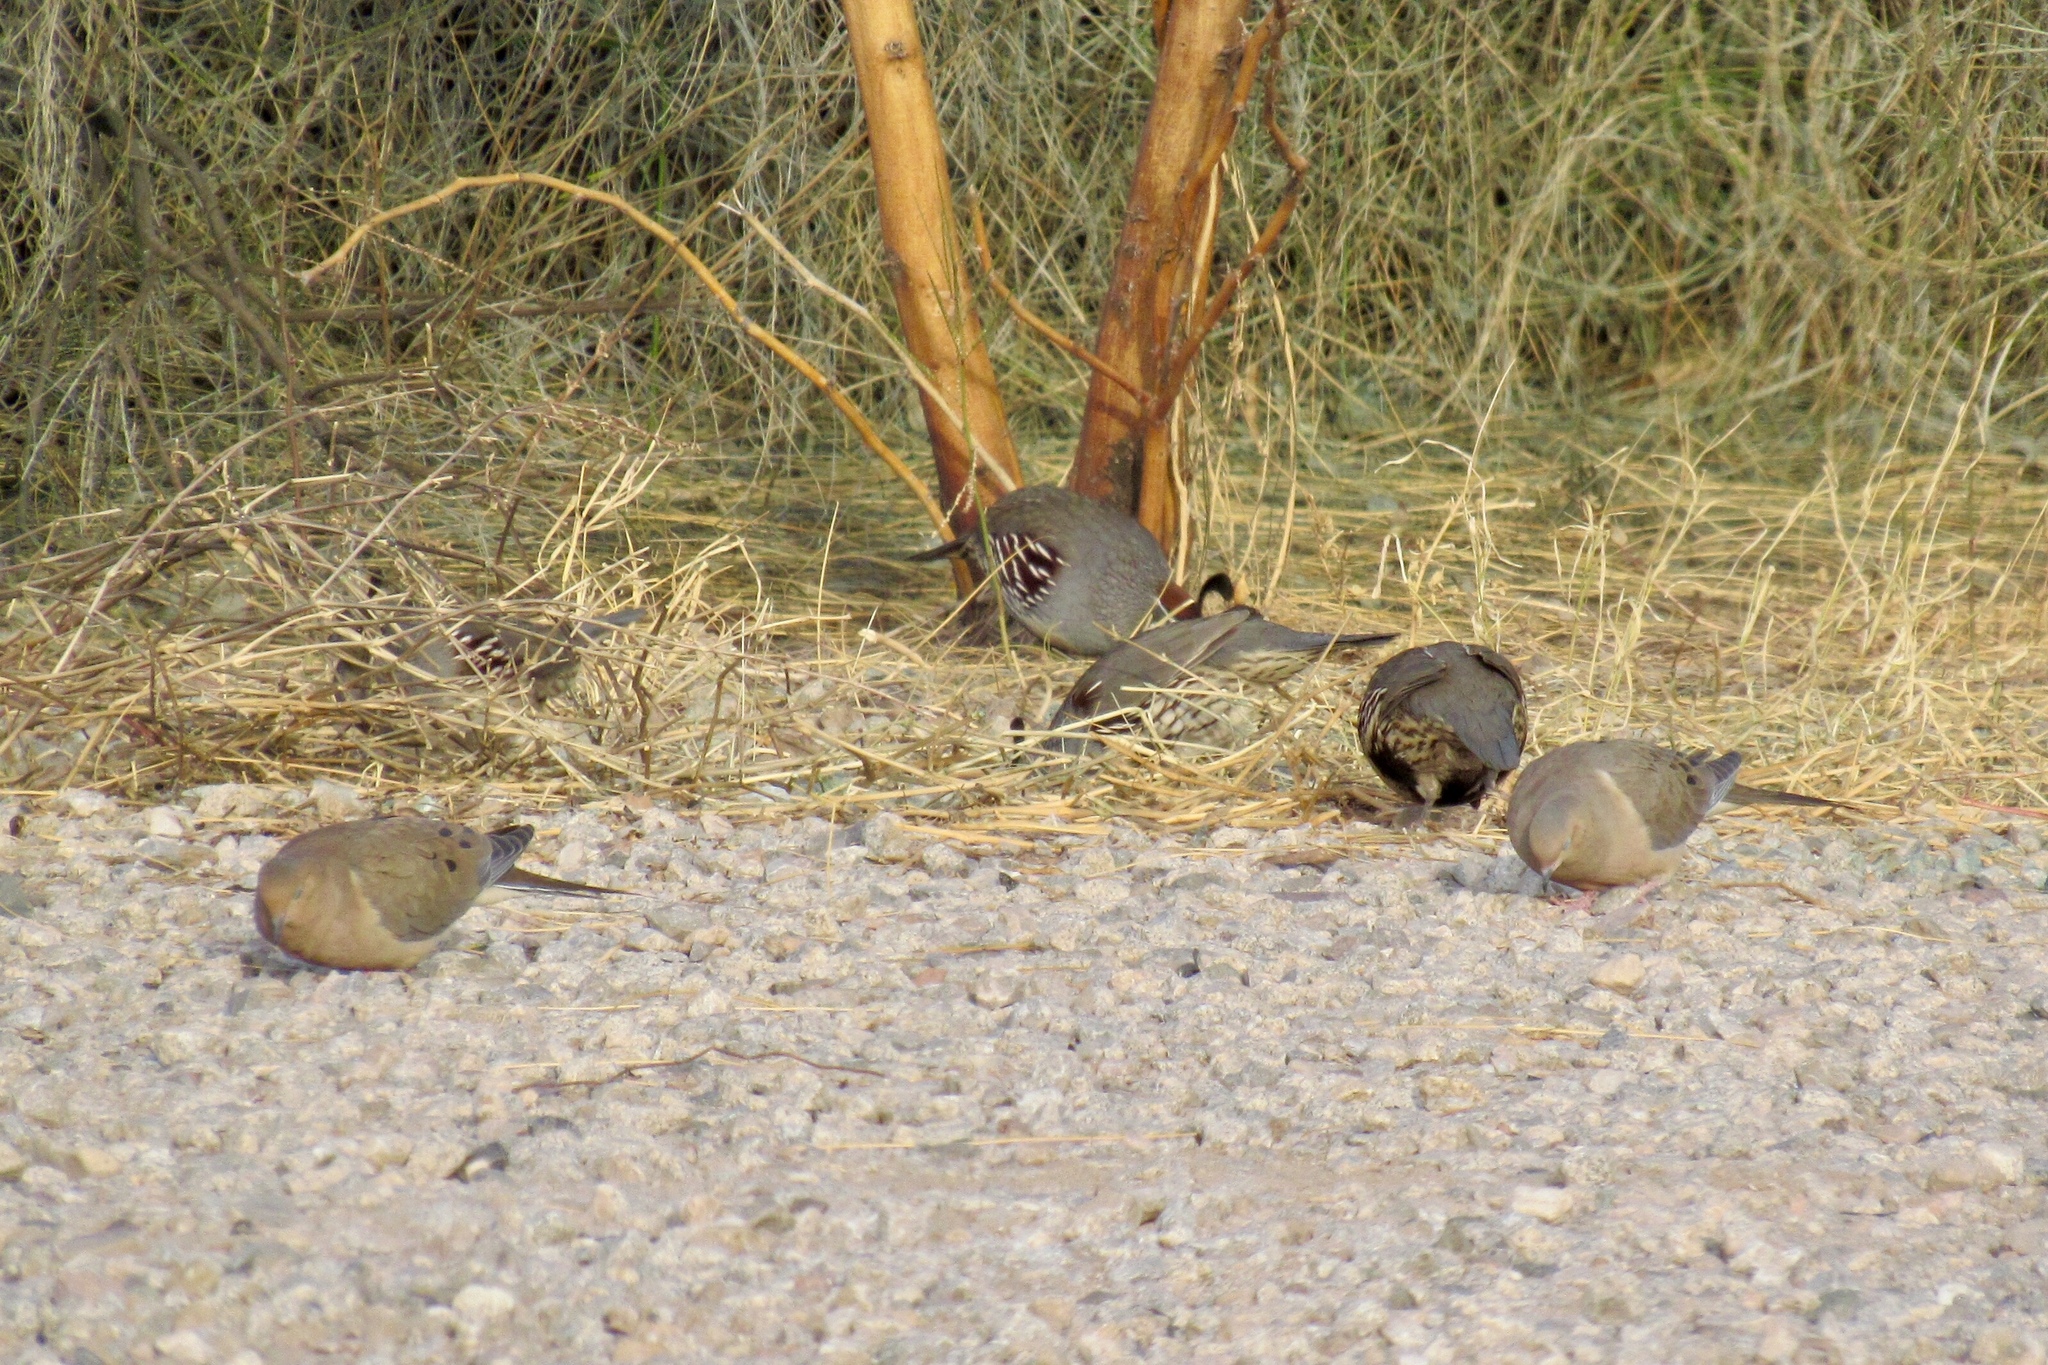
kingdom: Animalia
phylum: Chordata
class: Aves
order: Galliformes
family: Odontophoridae
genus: Callipepla
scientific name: Callipepla gambelii
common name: Gambel's quail
